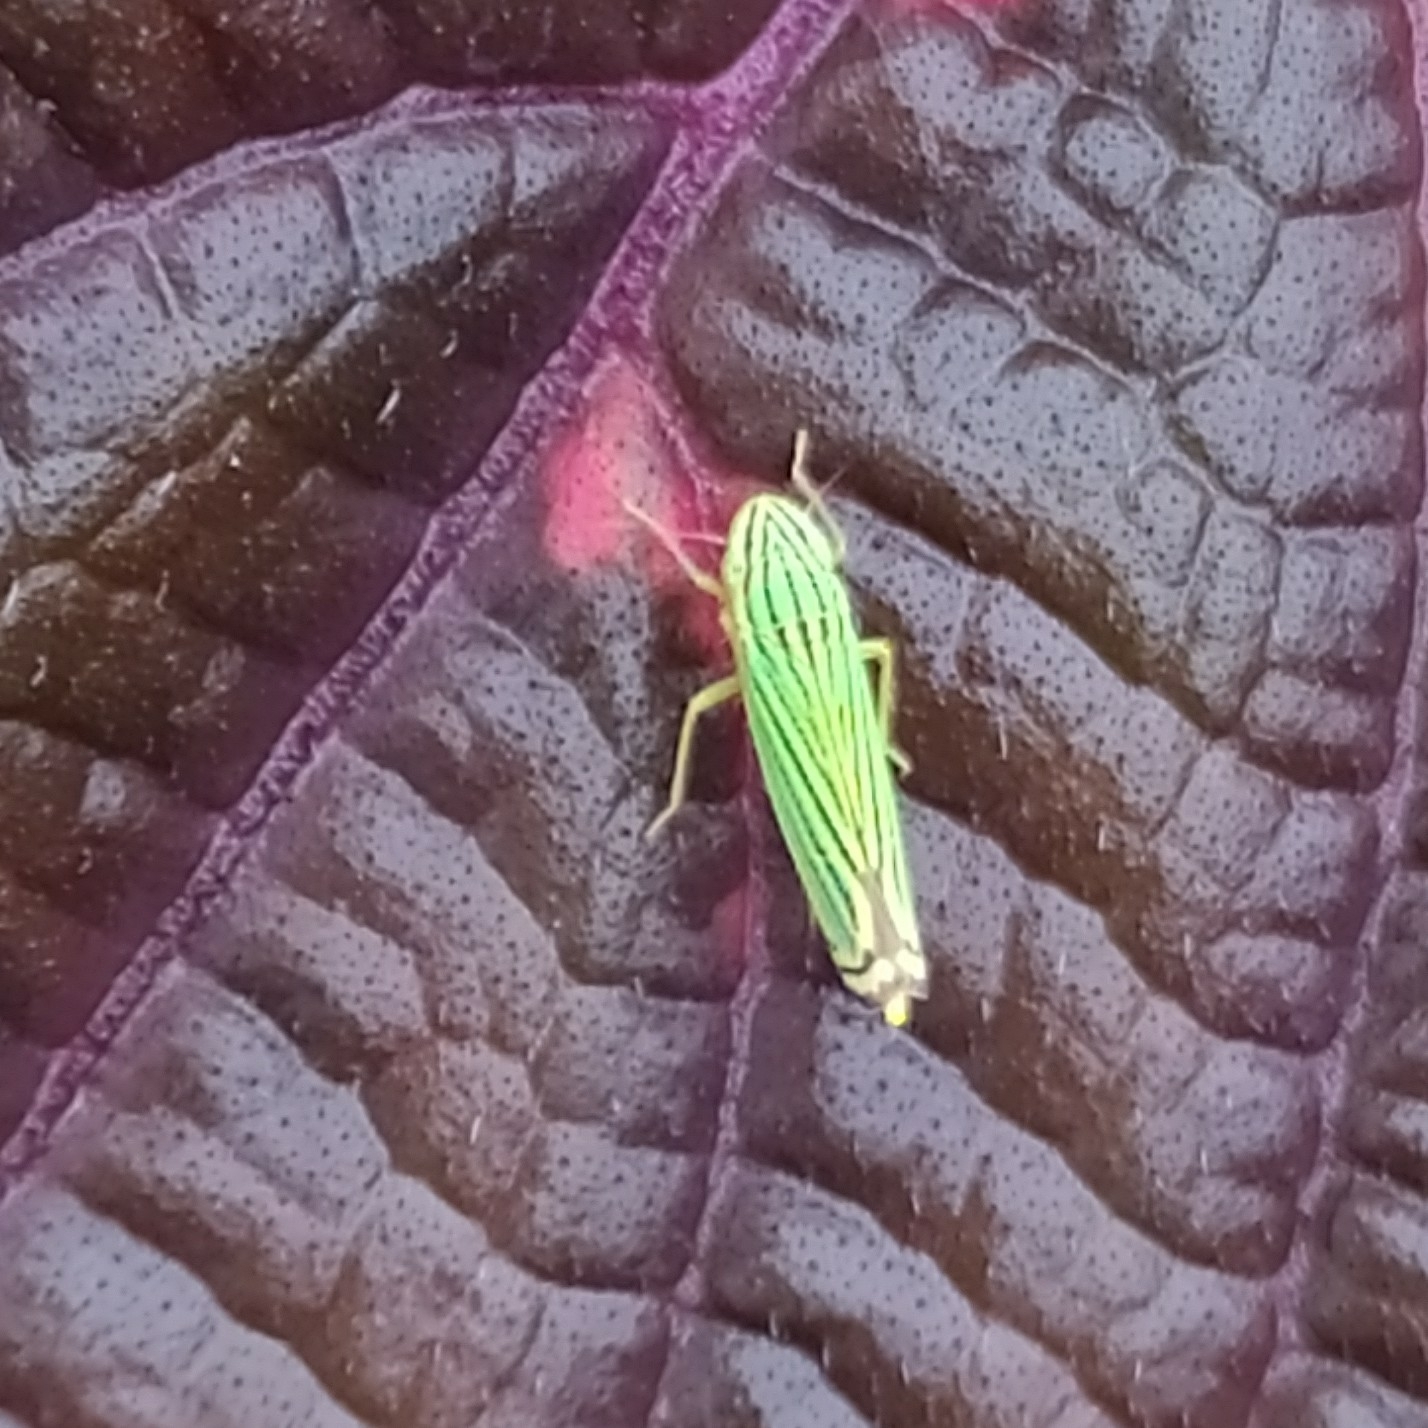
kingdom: Animalia
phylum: Arthropoda
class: Insecta
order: Hemiptera
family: Cicadellidae
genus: Sibovia
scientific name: Sibovia
